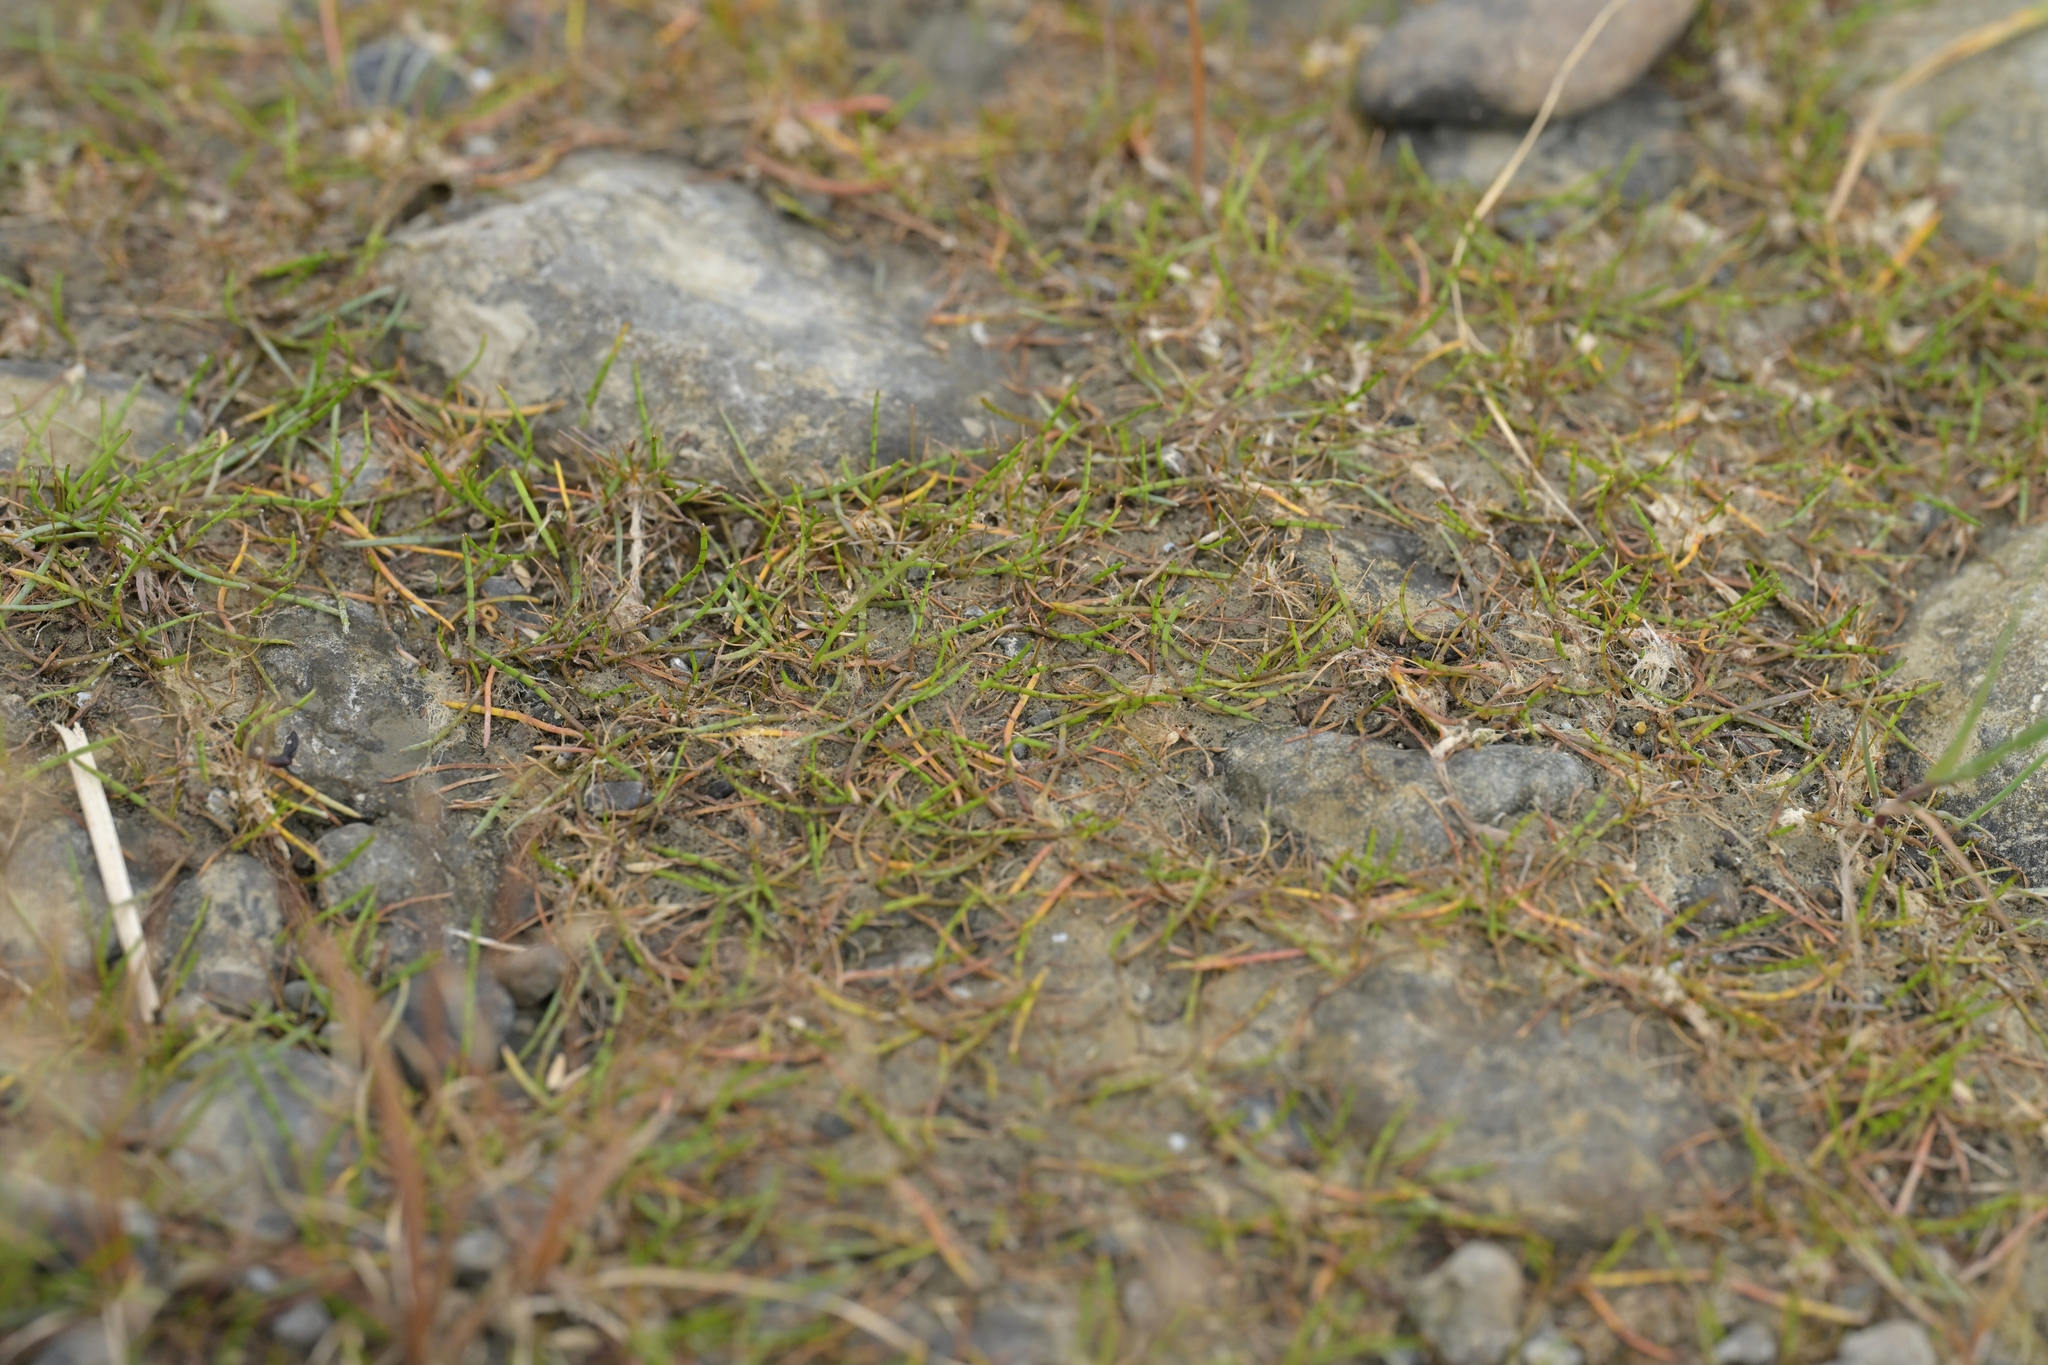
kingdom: Plantae
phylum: Tracheophyta
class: Magnoliopsida
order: Apiales
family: Apiaceae
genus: Lilaeopsis
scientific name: Lilaeopsis novae-zelandiae
